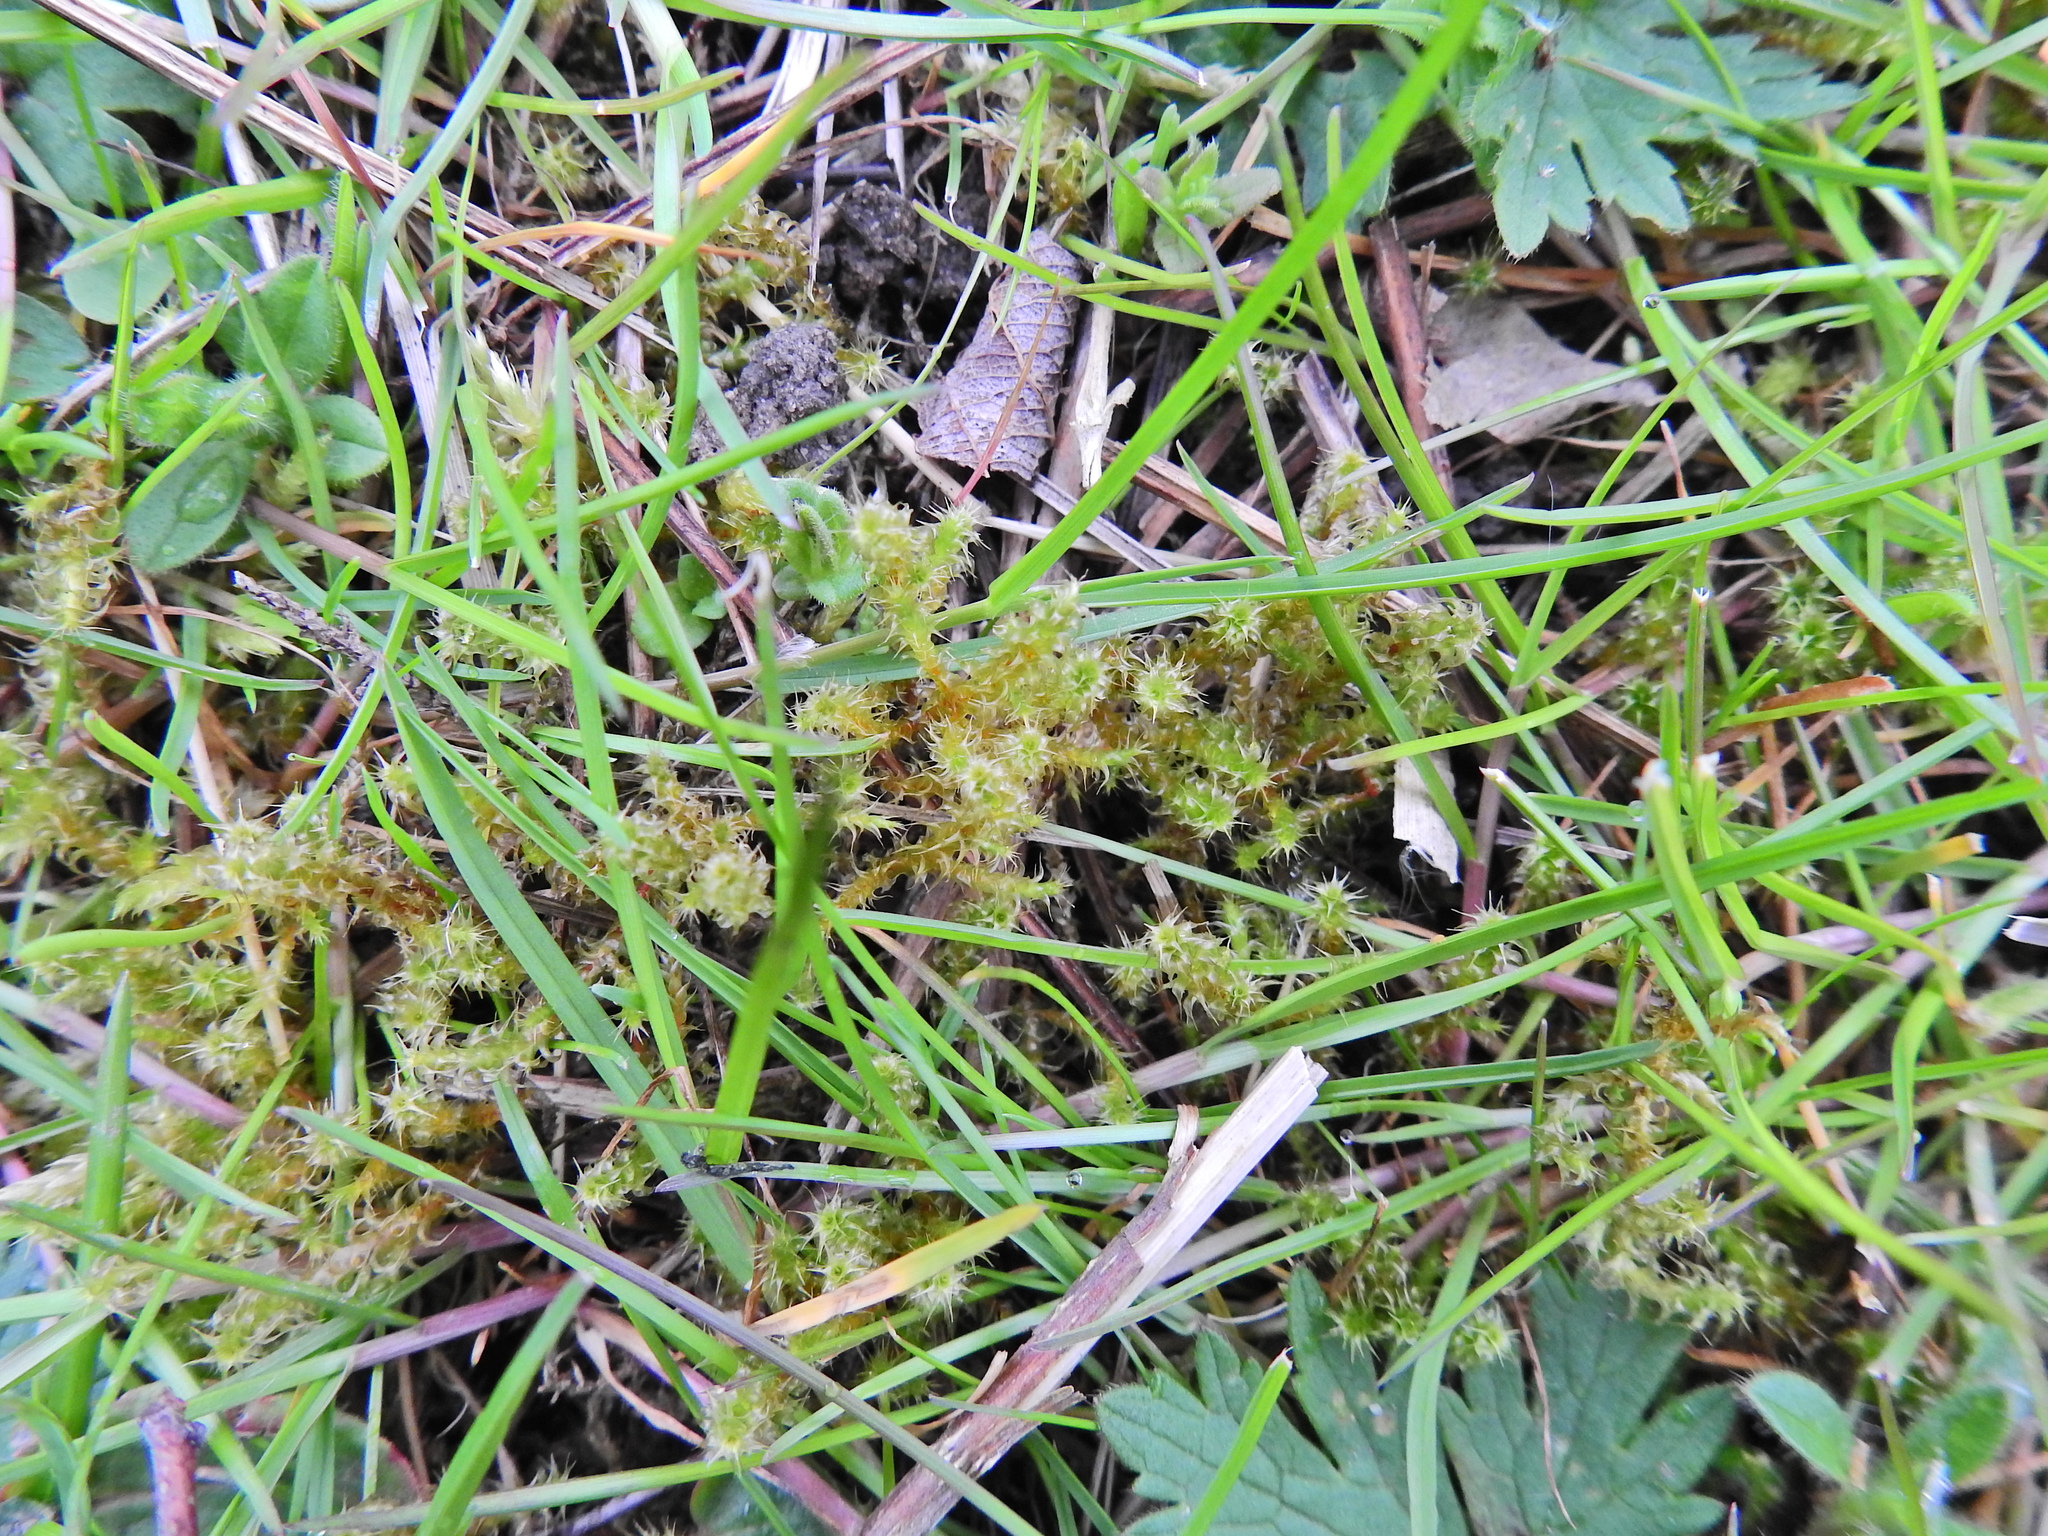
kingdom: Plantae
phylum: Bryophyta
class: Bryopsida
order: Hypnales
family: Hylocomiaceae
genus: Rhytidiadelphus
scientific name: Rhytidiadelphus squarrosus
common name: Springy turf-moss
